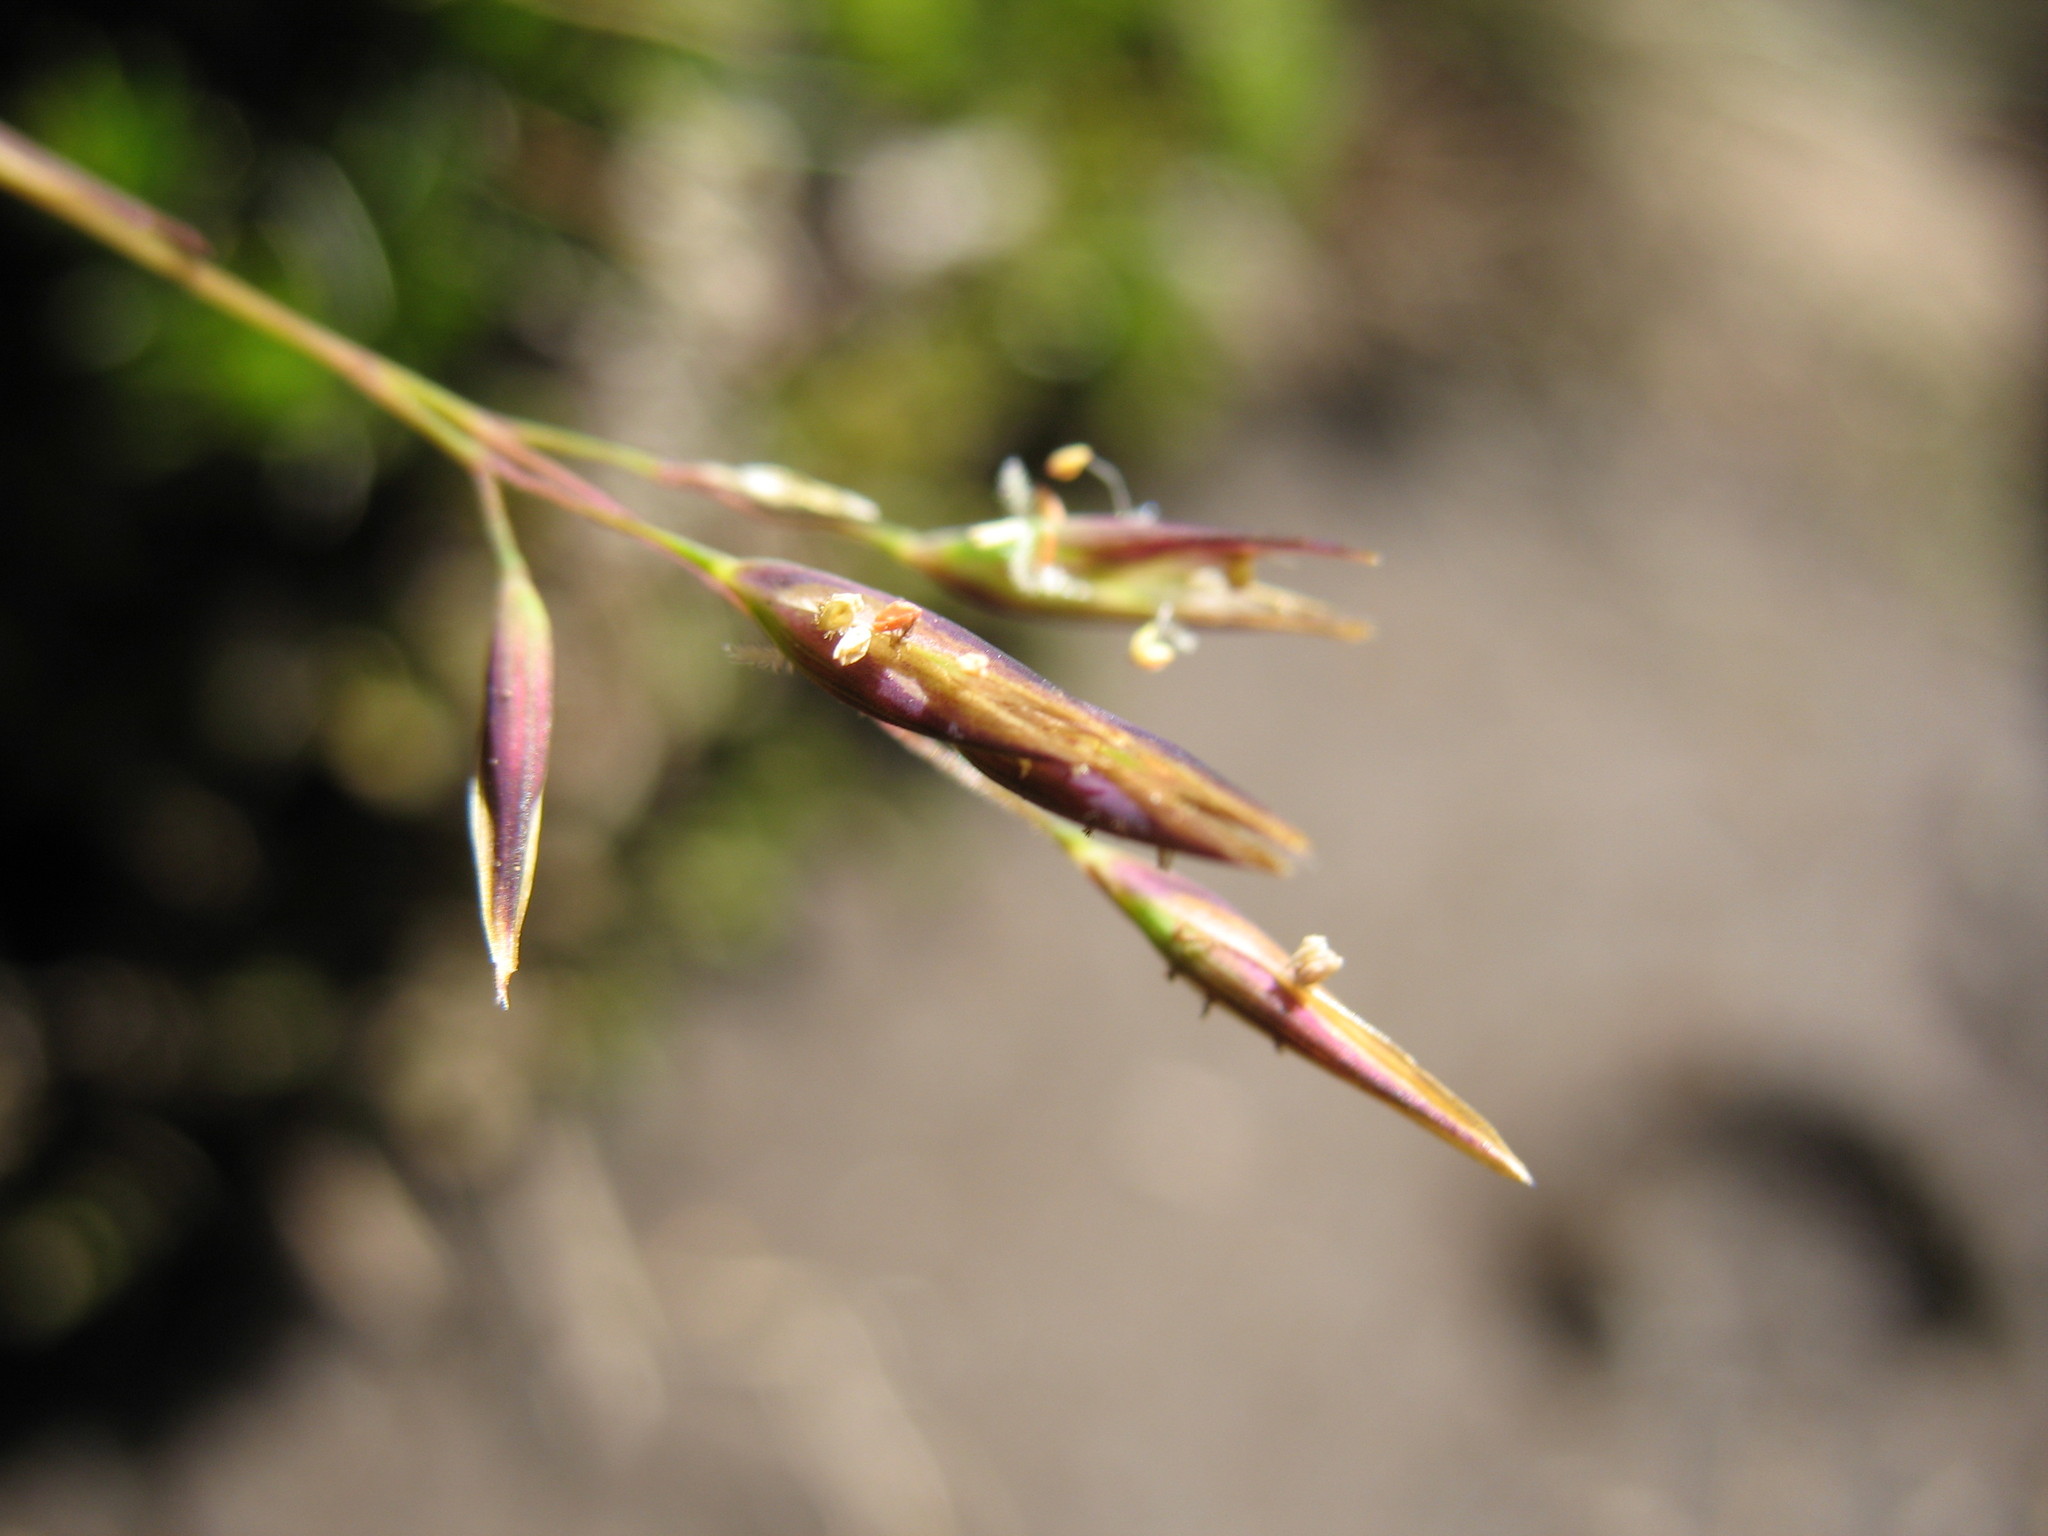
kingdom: Plantae
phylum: Tracheophyta
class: Liliopsida
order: Poales
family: Poaceae
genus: Rytidosperma
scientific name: Rytidosperma pauciflorum
